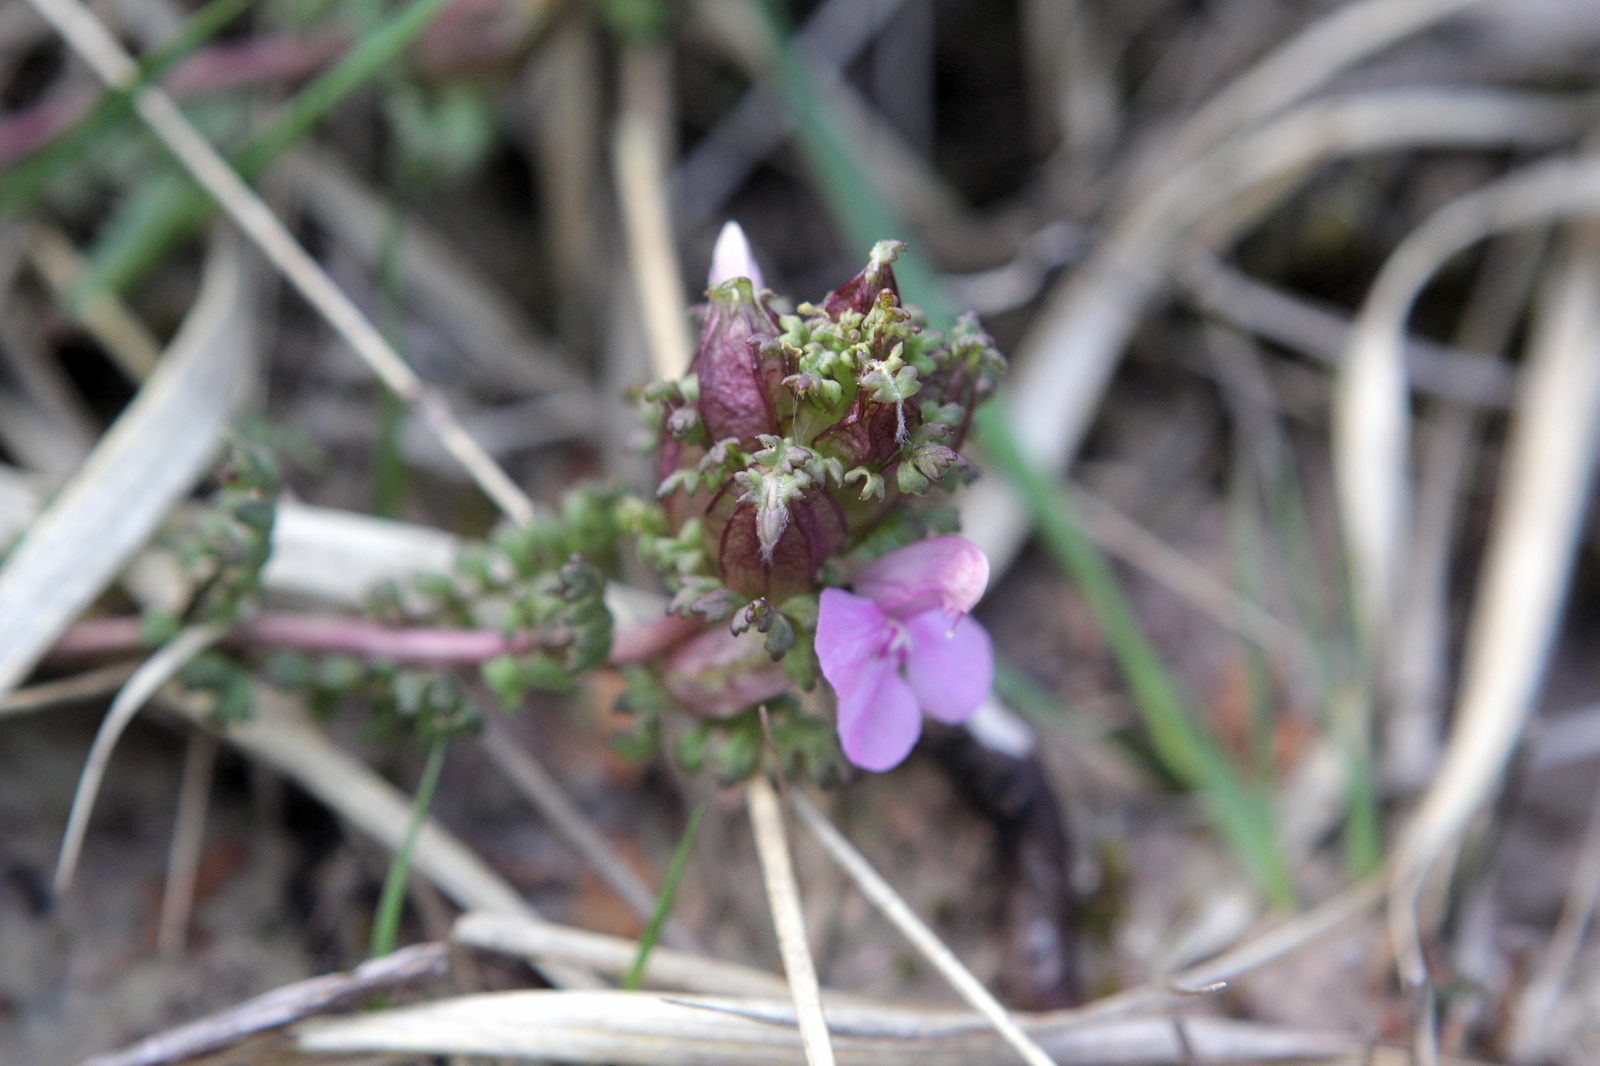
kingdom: Plantae
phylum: Tracheophyta
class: Magnoliopsida
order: Lamiales
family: Orobanchaceae
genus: Pedicularis
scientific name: Pedicularis sylvatica
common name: Lousewort
